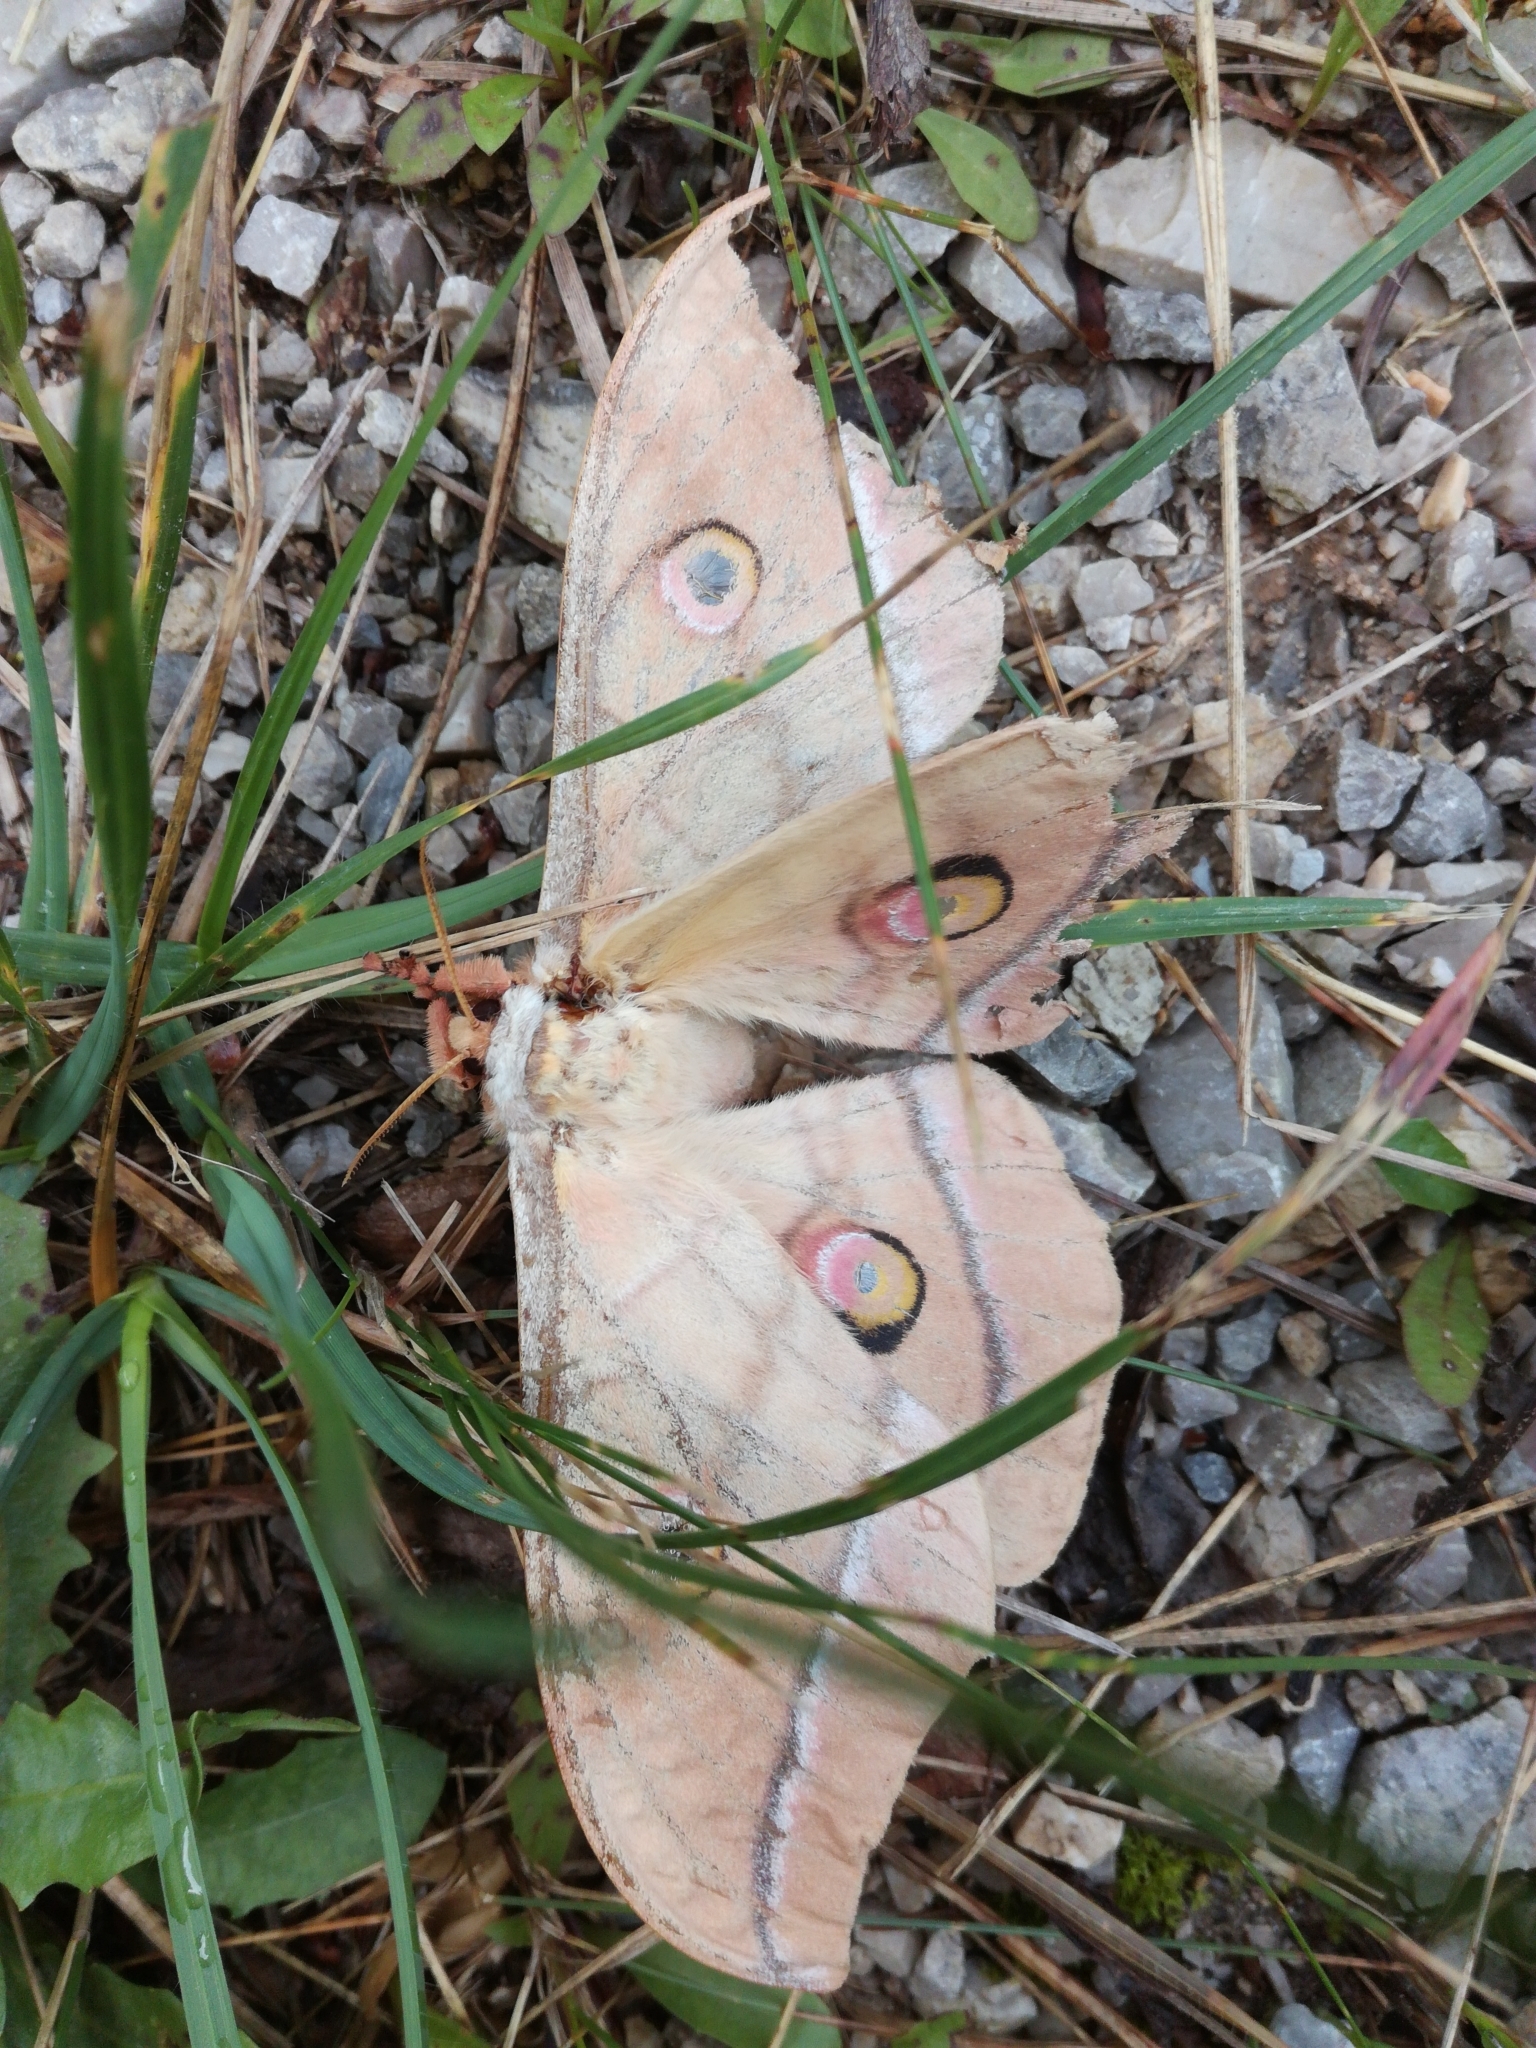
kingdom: Animalia
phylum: Arthropoda
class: Insecta
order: Lepidoptera
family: Saturniidae
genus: Antheraea
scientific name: Antheraea yamamai
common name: Japanese oak silk moth
